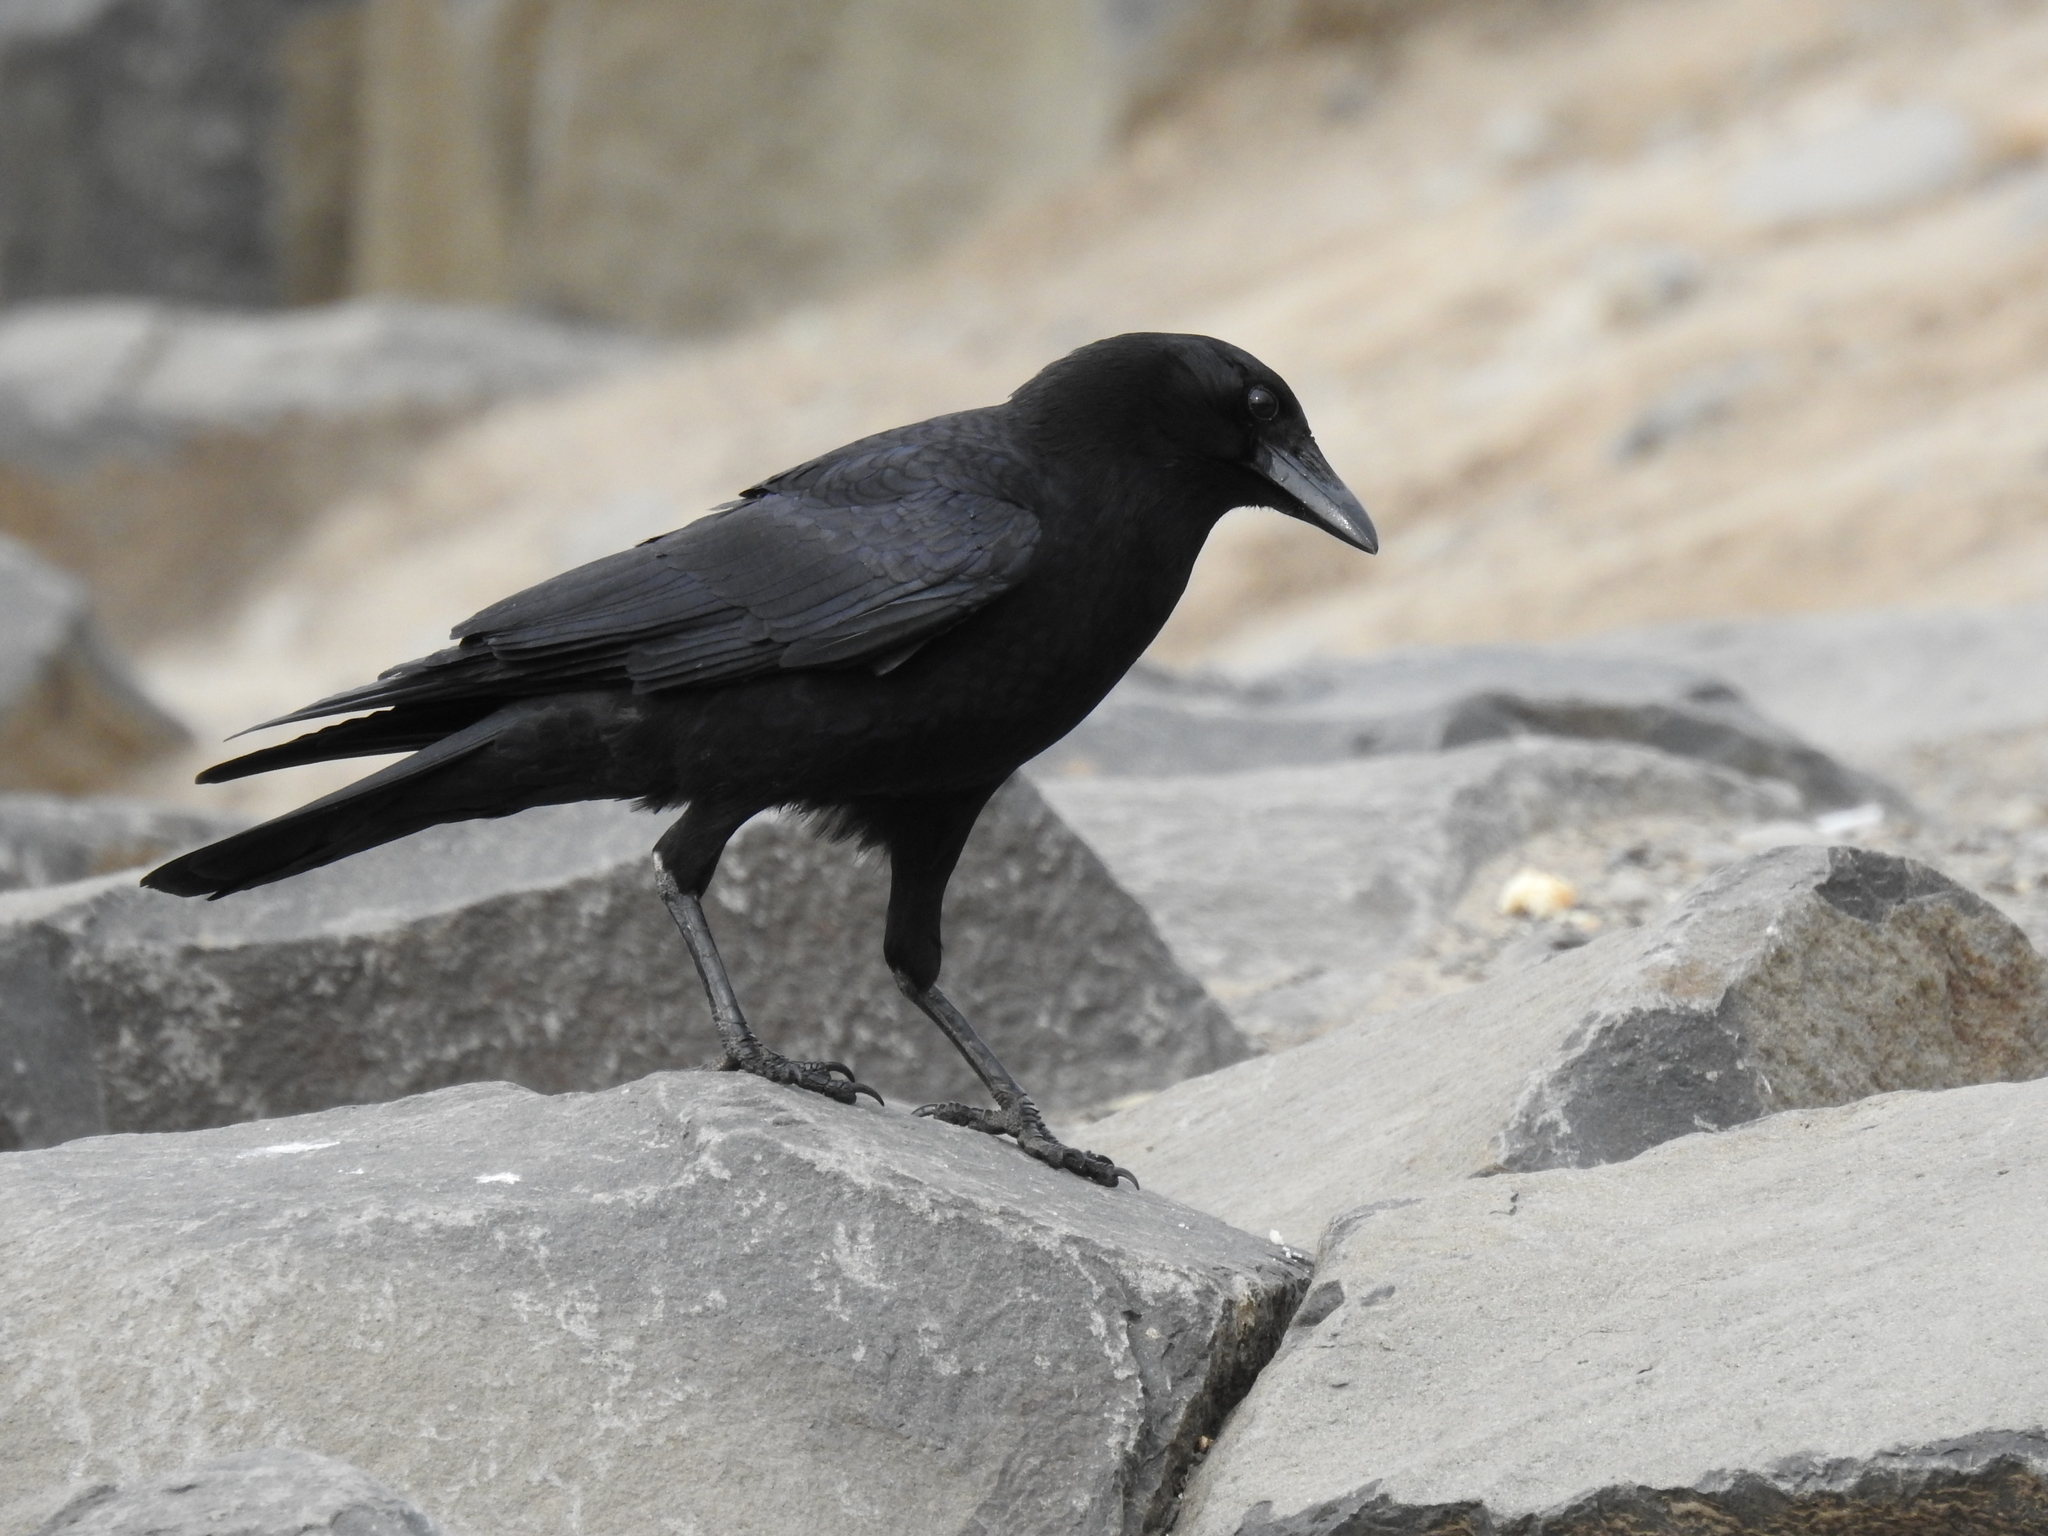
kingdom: Animalia
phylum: Chordata
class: Aves
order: Passeriformes
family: Corvidae
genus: Corvus
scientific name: Corvus brachyrhynchos
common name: American crow
